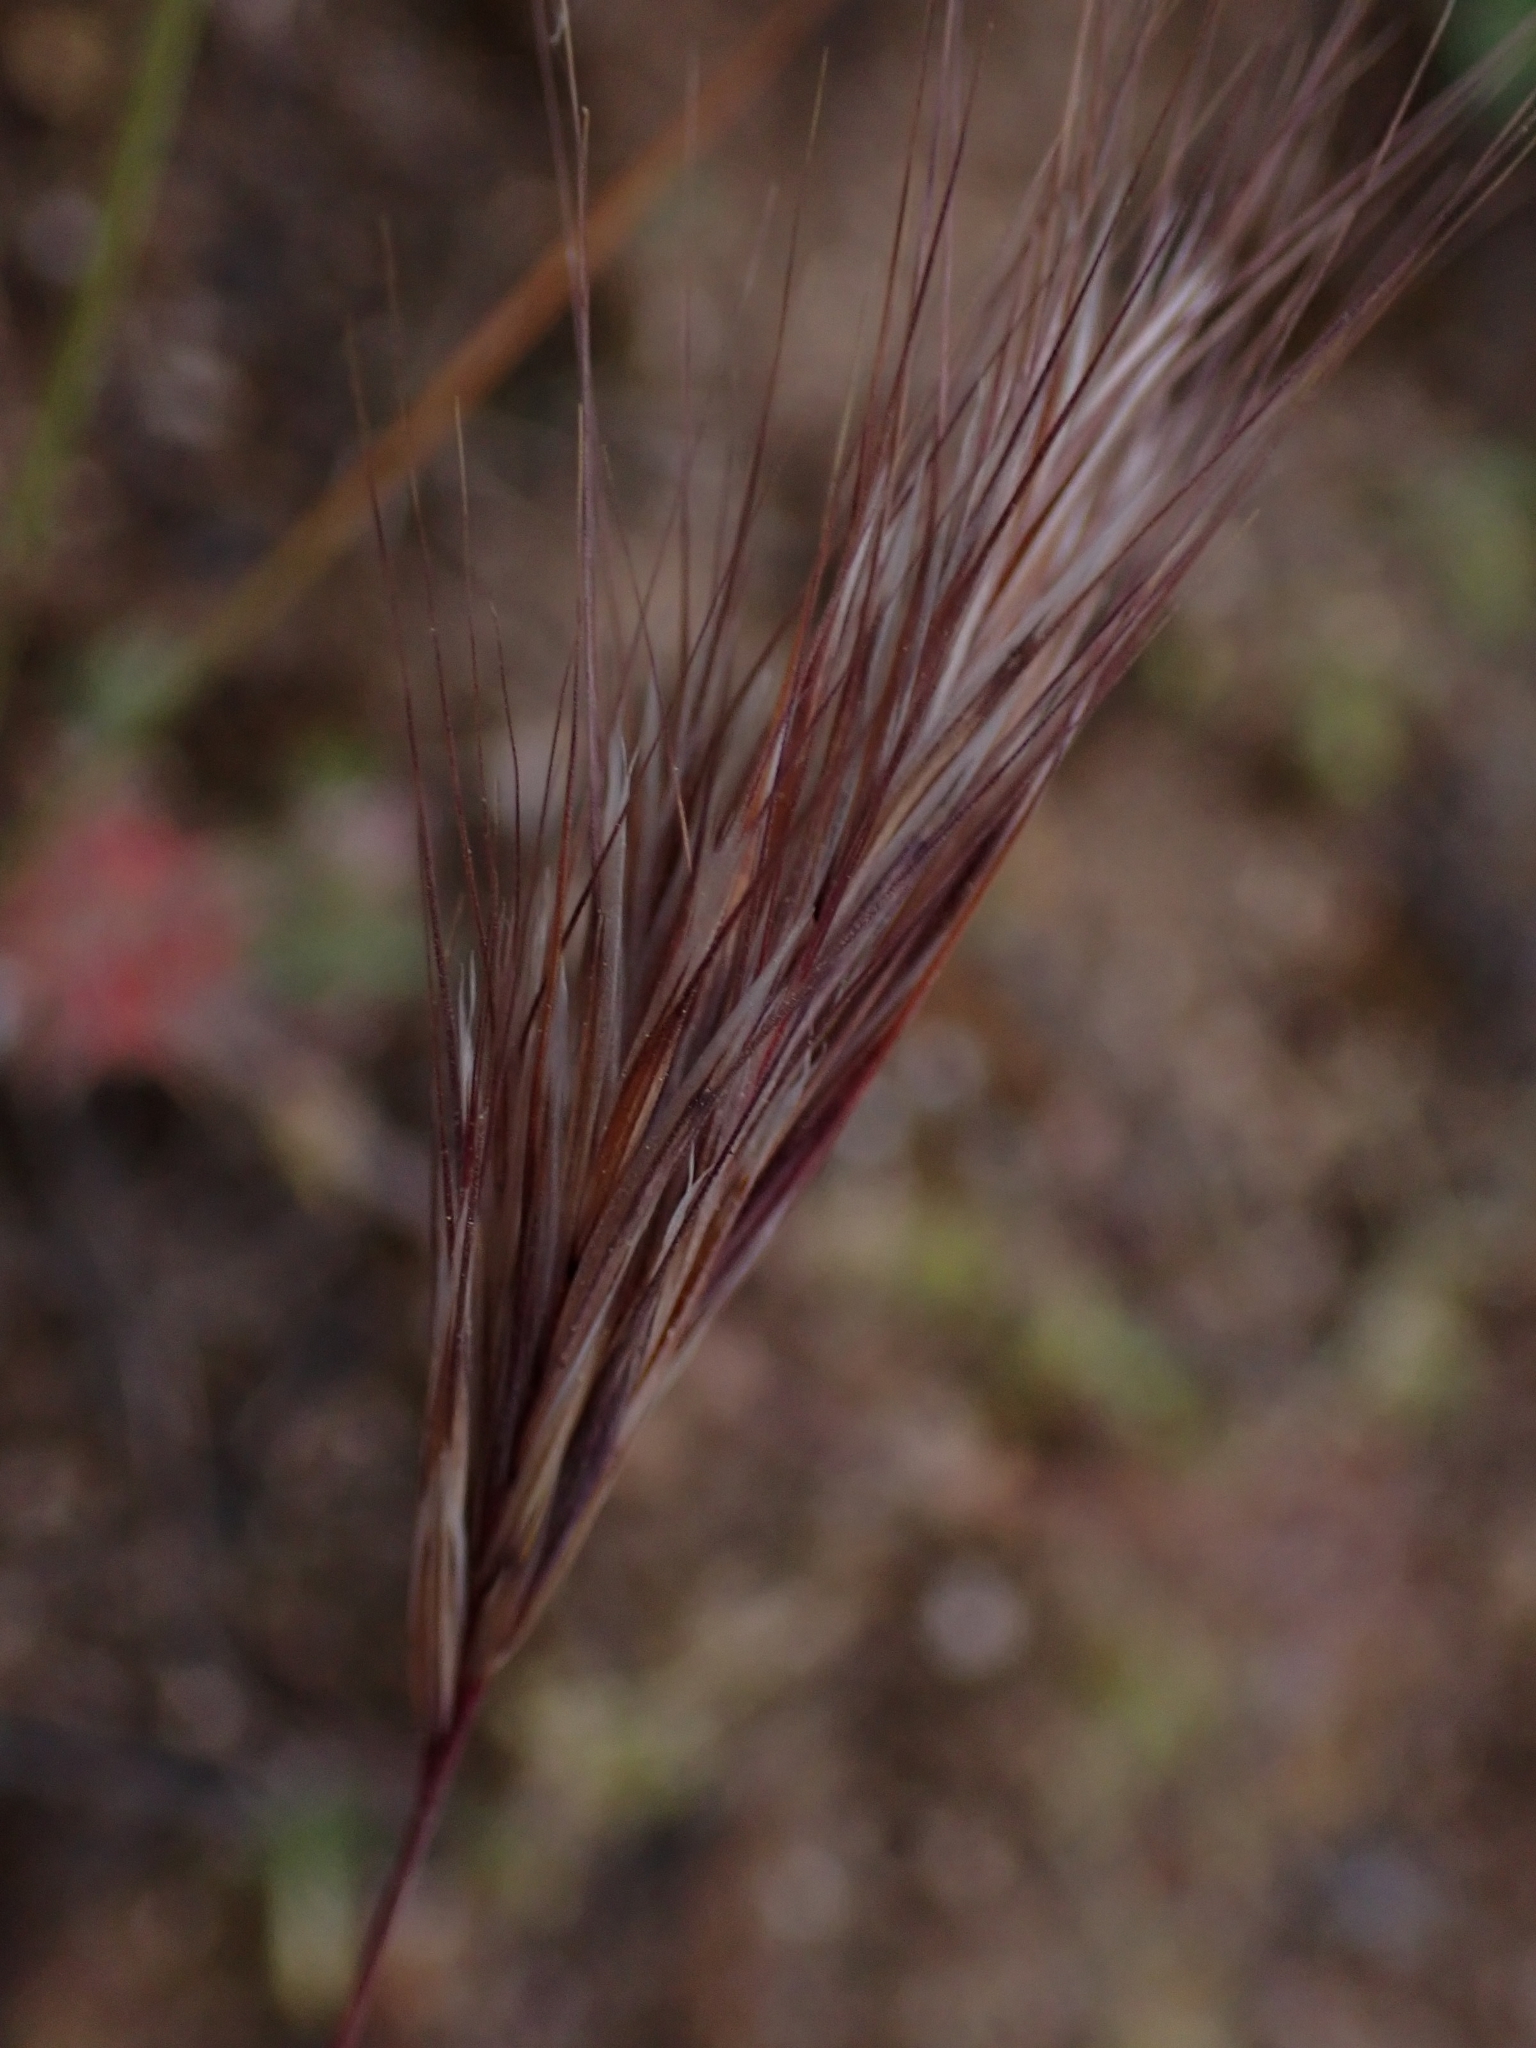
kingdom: Plantae
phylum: Tracheophyta
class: Liliopsida
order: Poales
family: Poaceae
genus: Bromus
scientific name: Bromus rubens
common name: Red brome
